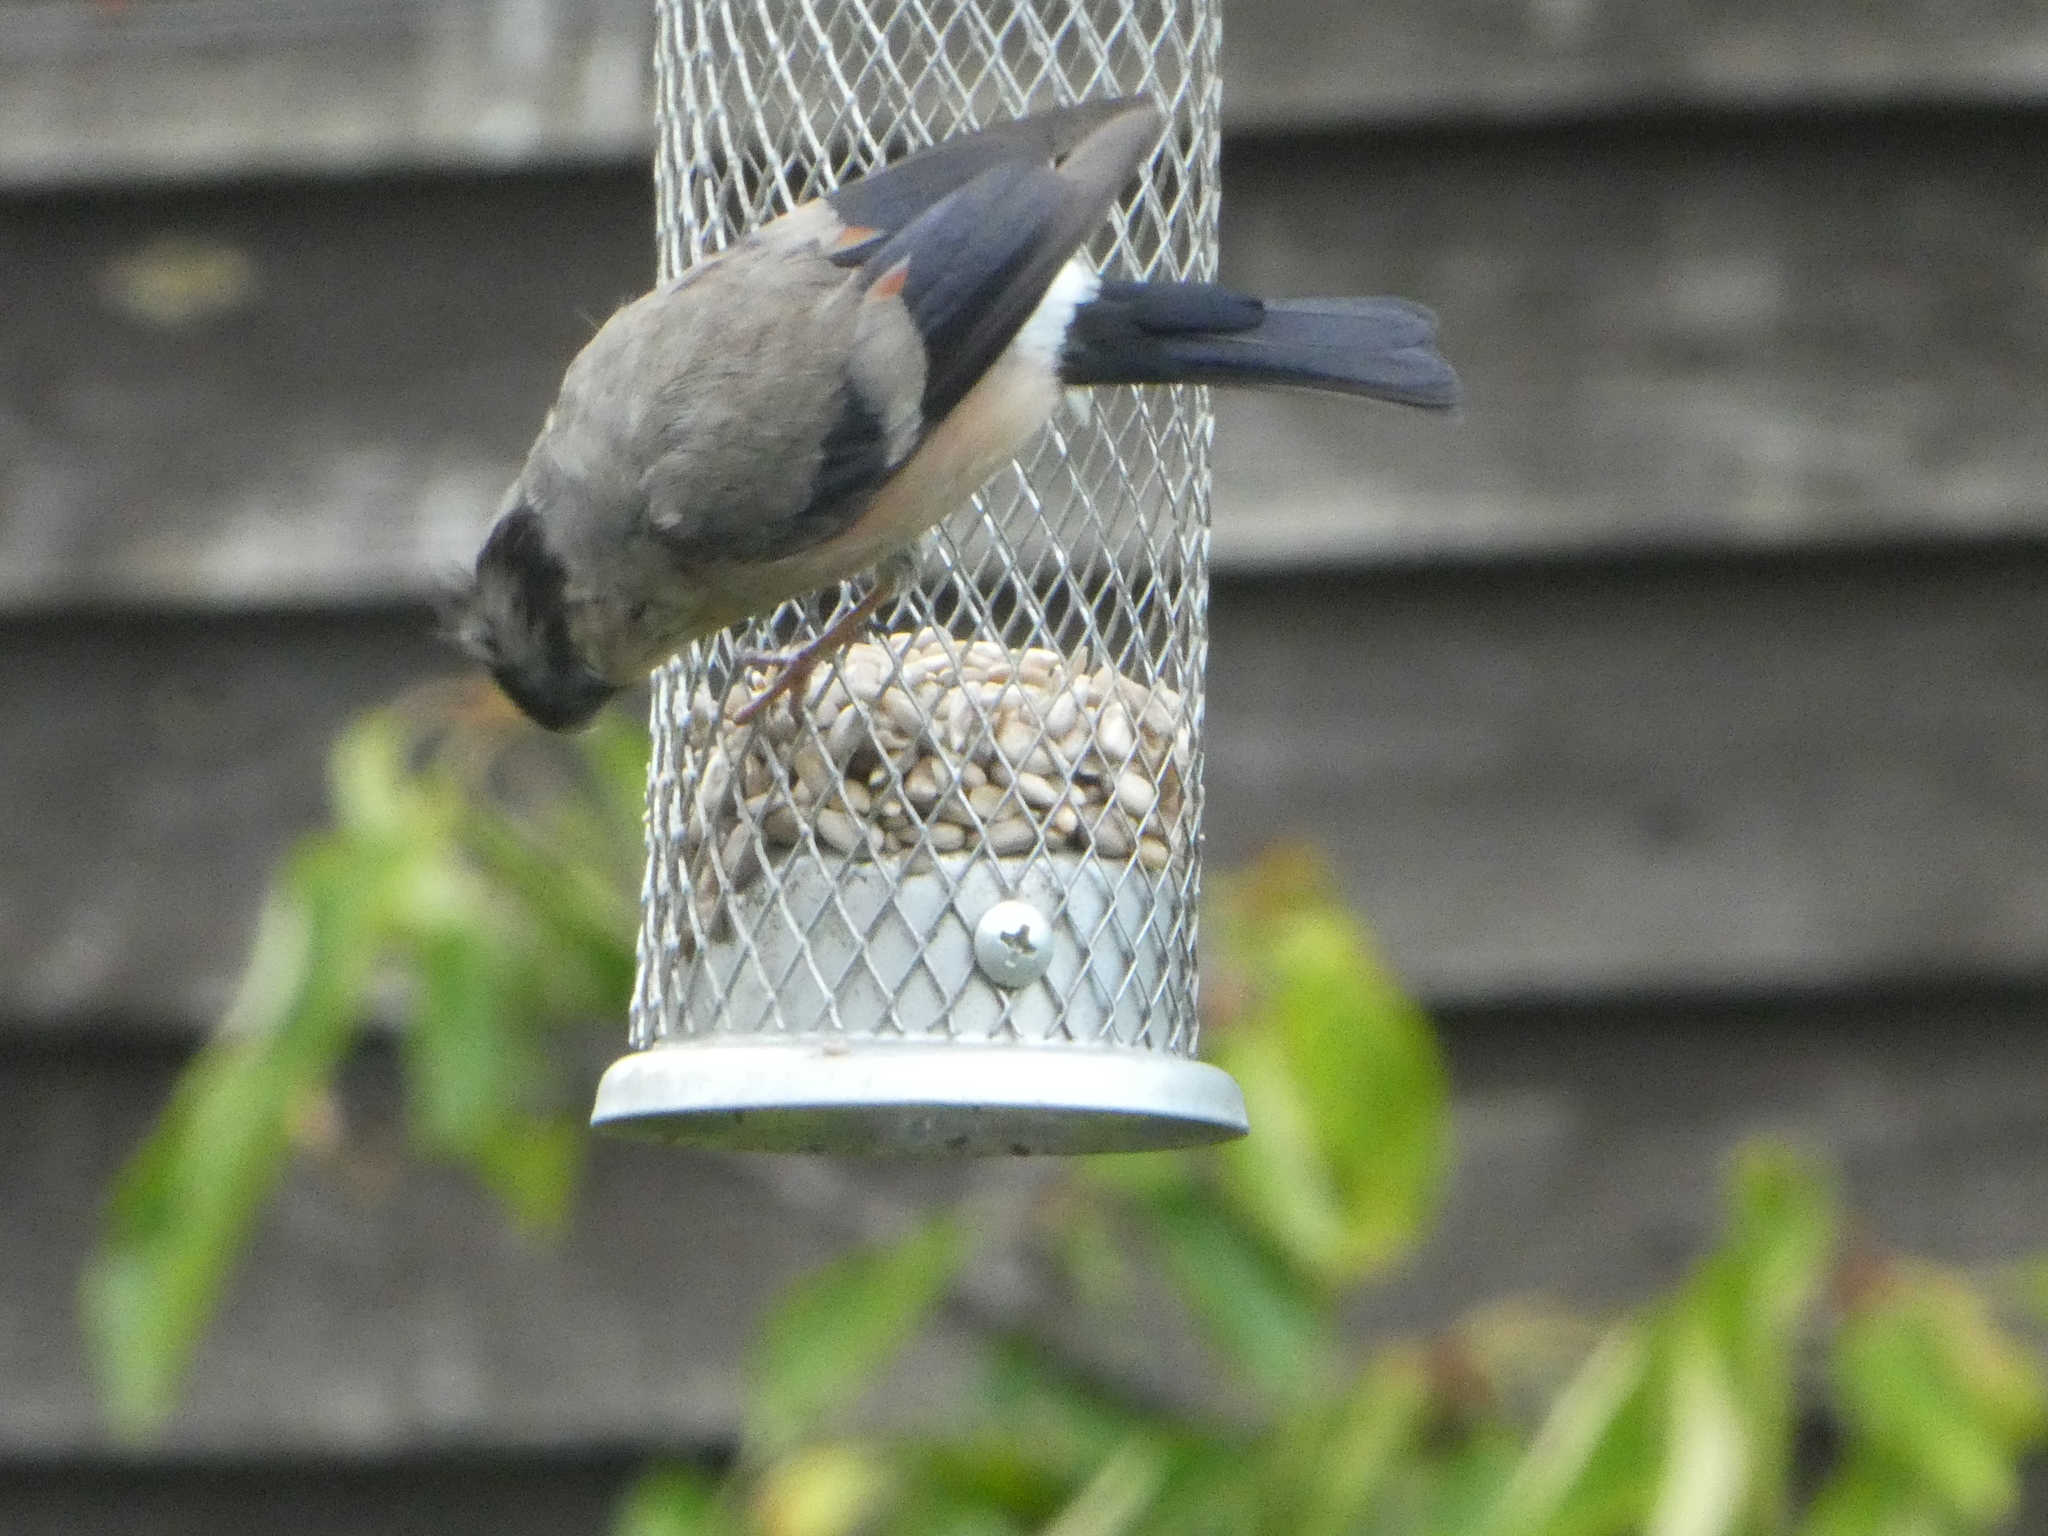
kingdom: Animalia
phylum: Chordata
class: Aves
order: Passeriformes
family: Fringillidae
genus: Pyrrhula
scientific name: Pyrrhula pyrrhula
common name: Eurasian bullfinch
